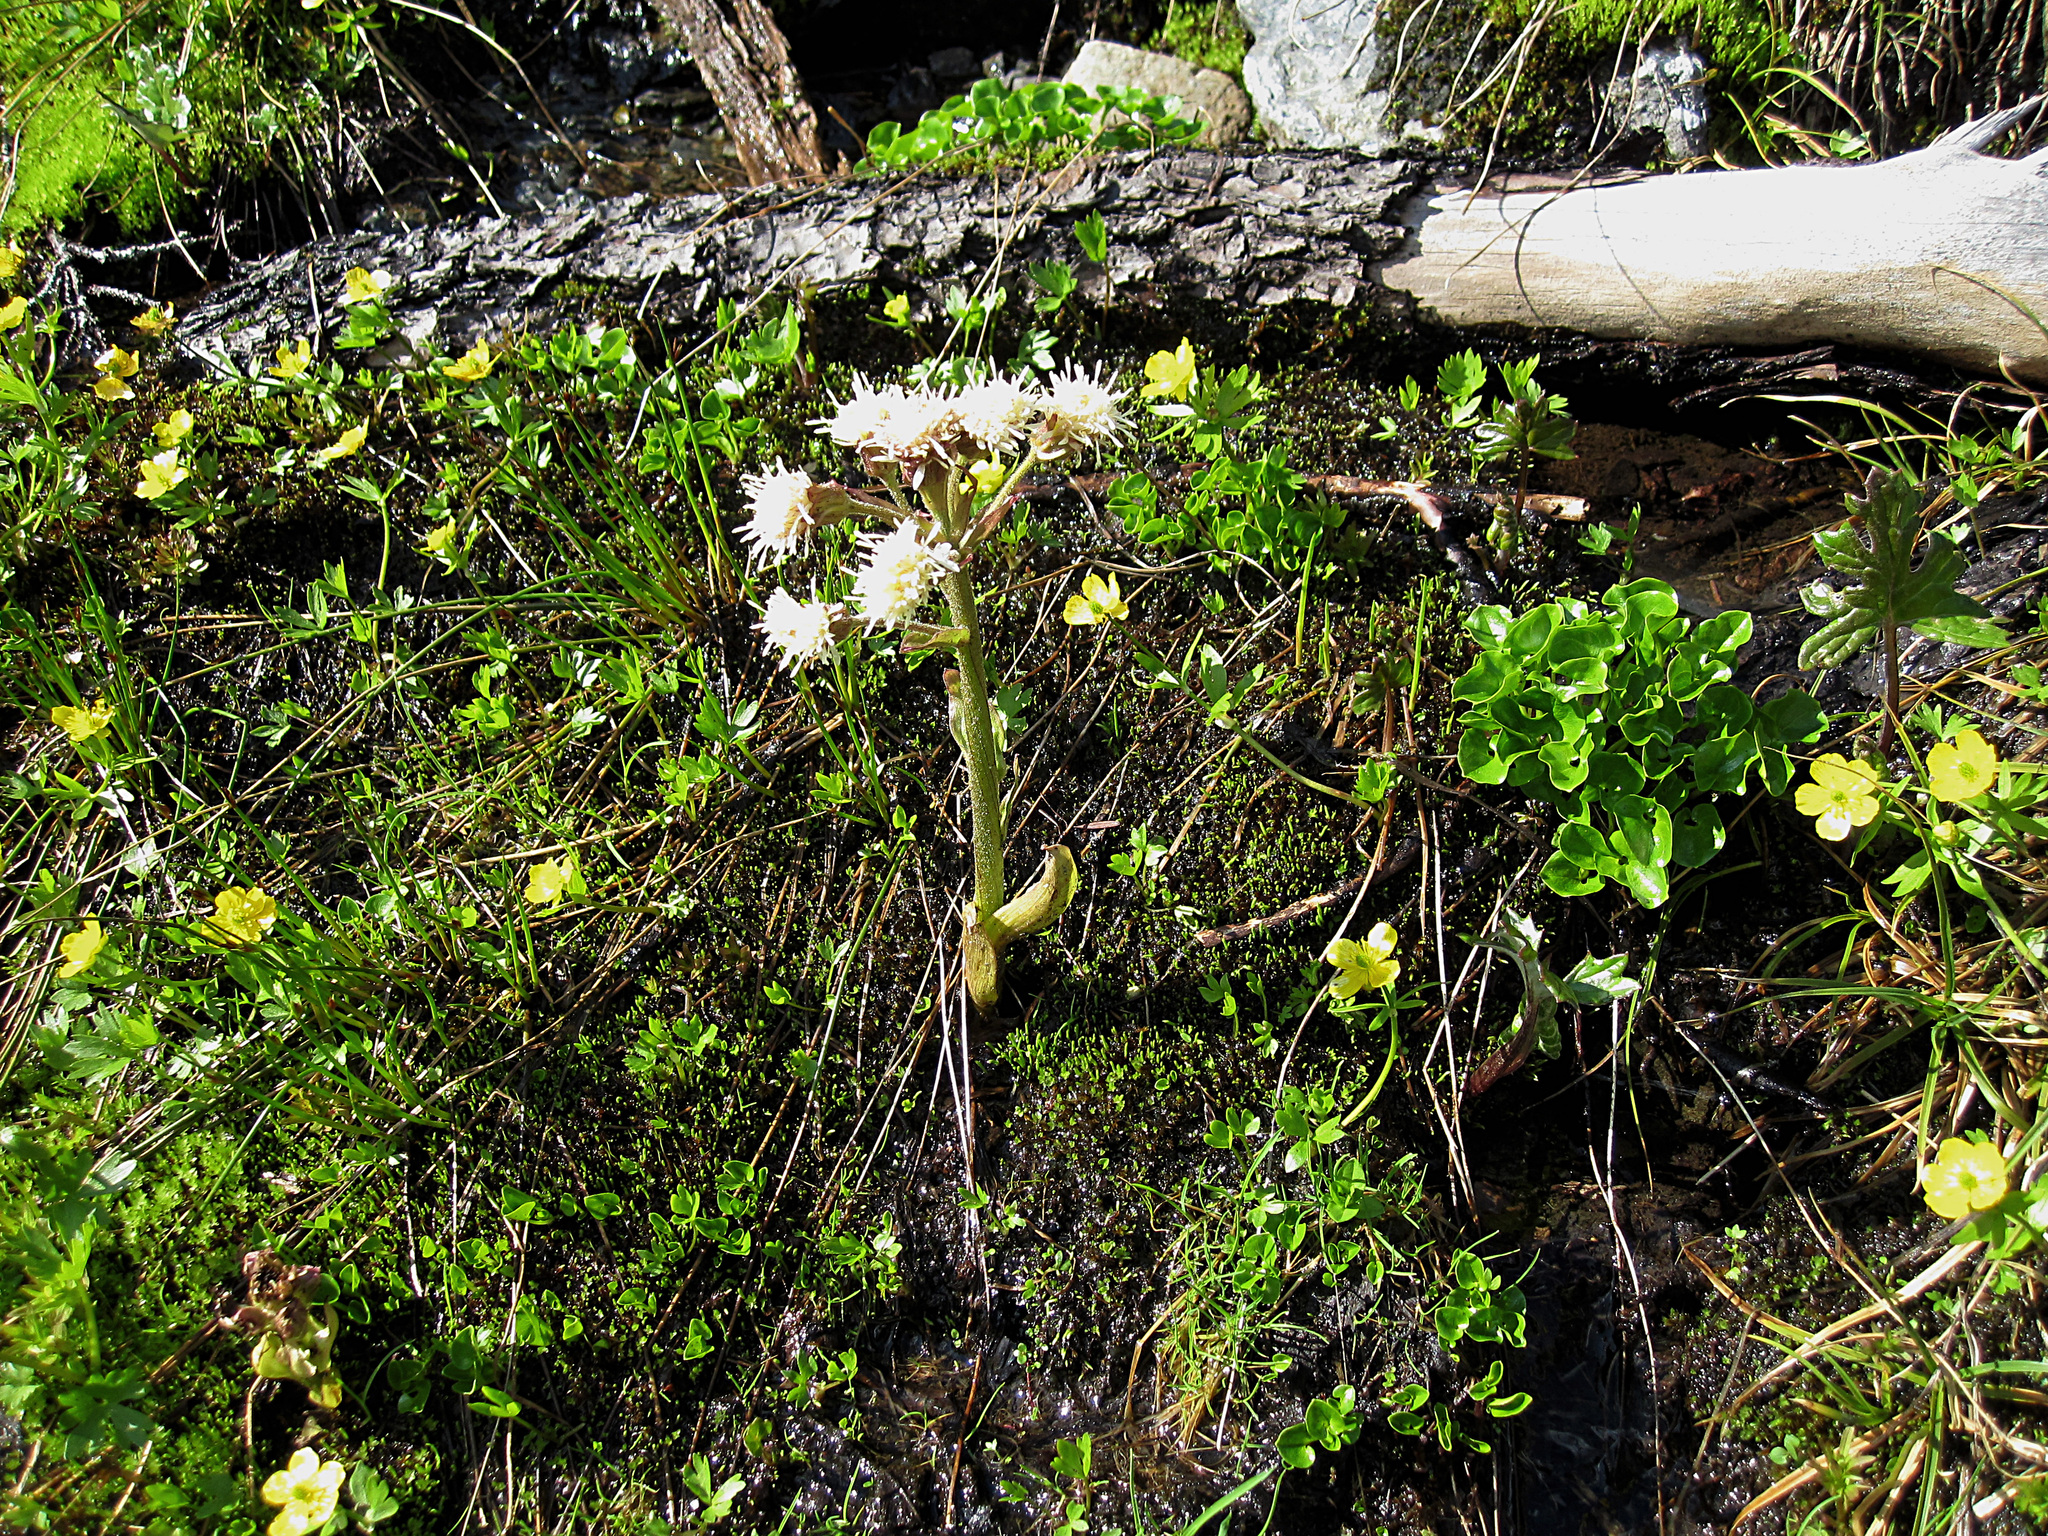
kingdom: Plantae
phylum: Tracheophyta
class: Magnoliopsida
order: Asterales
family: Asteraceae
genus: Petasites
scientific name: Petasites frigidus
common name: Arctic butterbur
